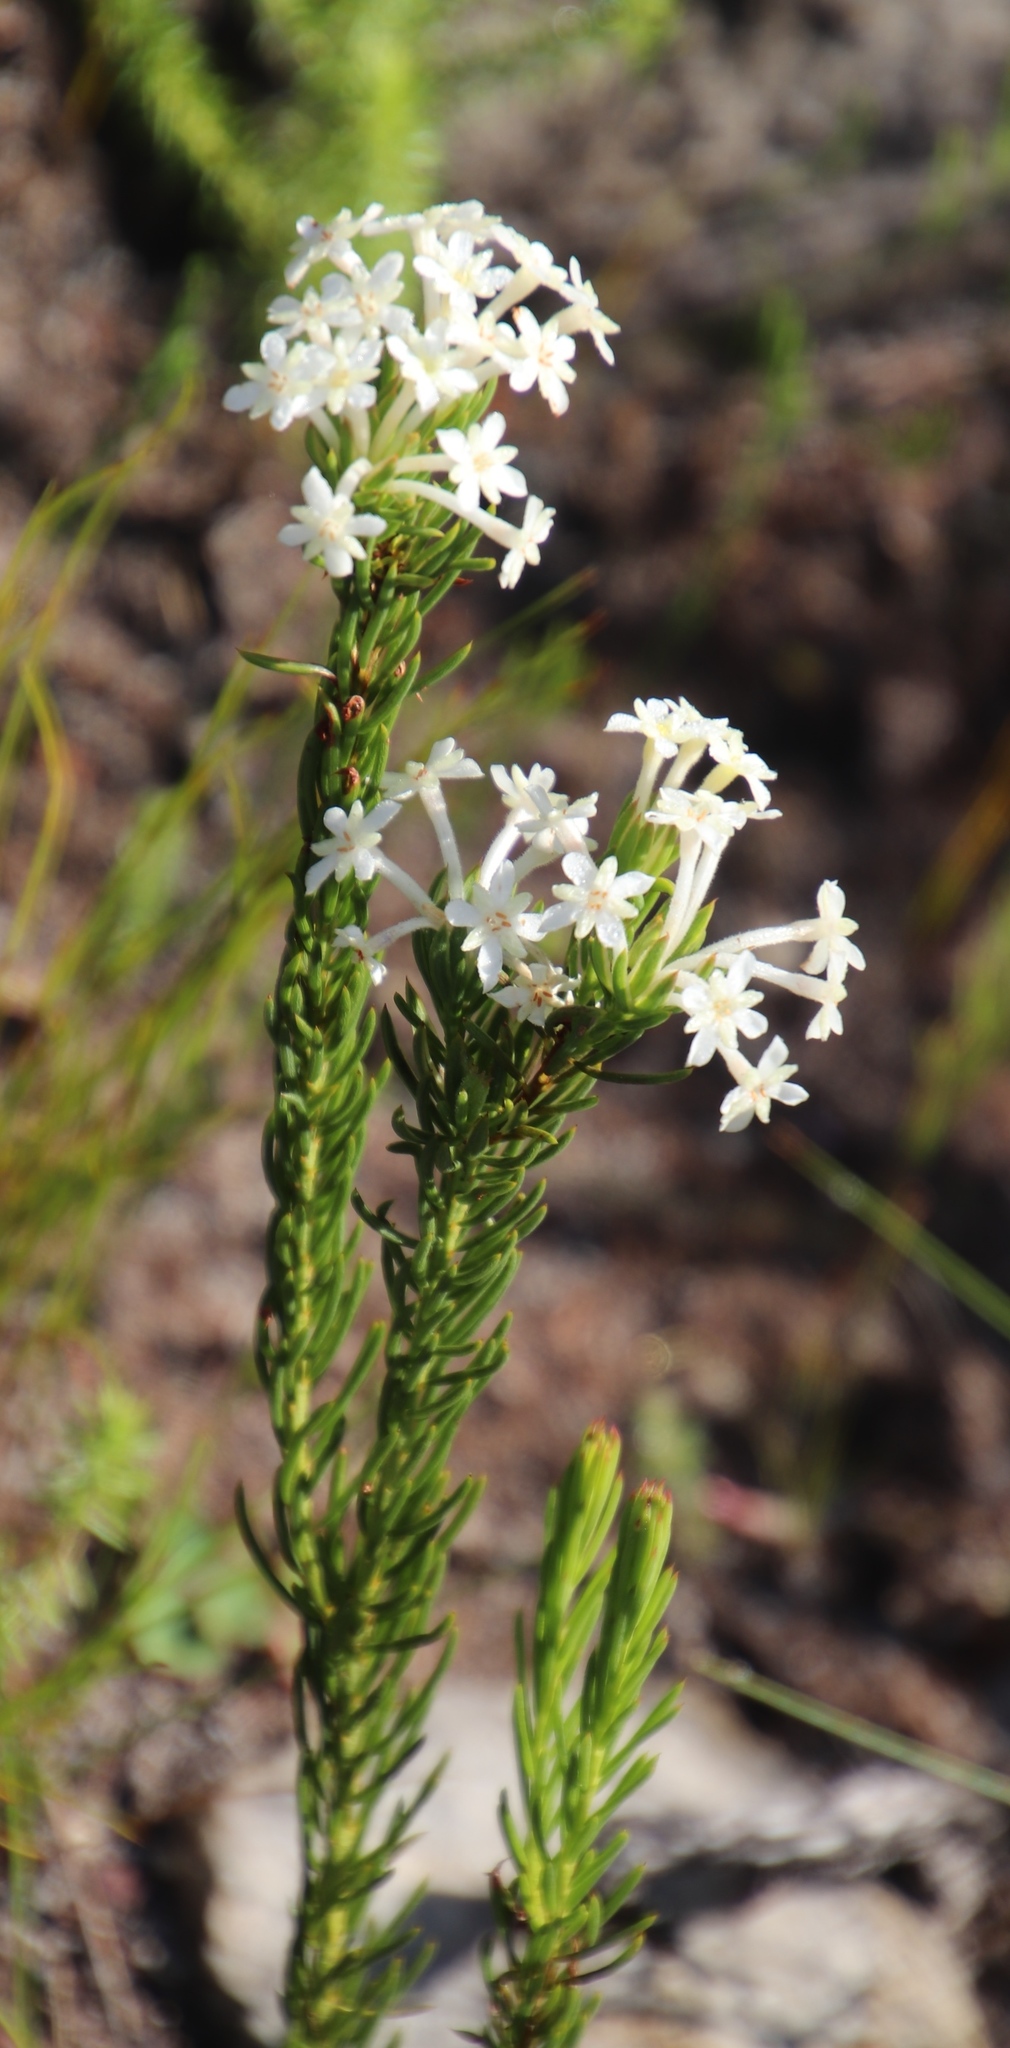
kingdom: Plantae
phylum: Tracheophyta
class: Magnoliopsida
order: Malvales
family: Thymelaeaceae
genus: Gnidia
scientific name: Gnidia pinifolia
